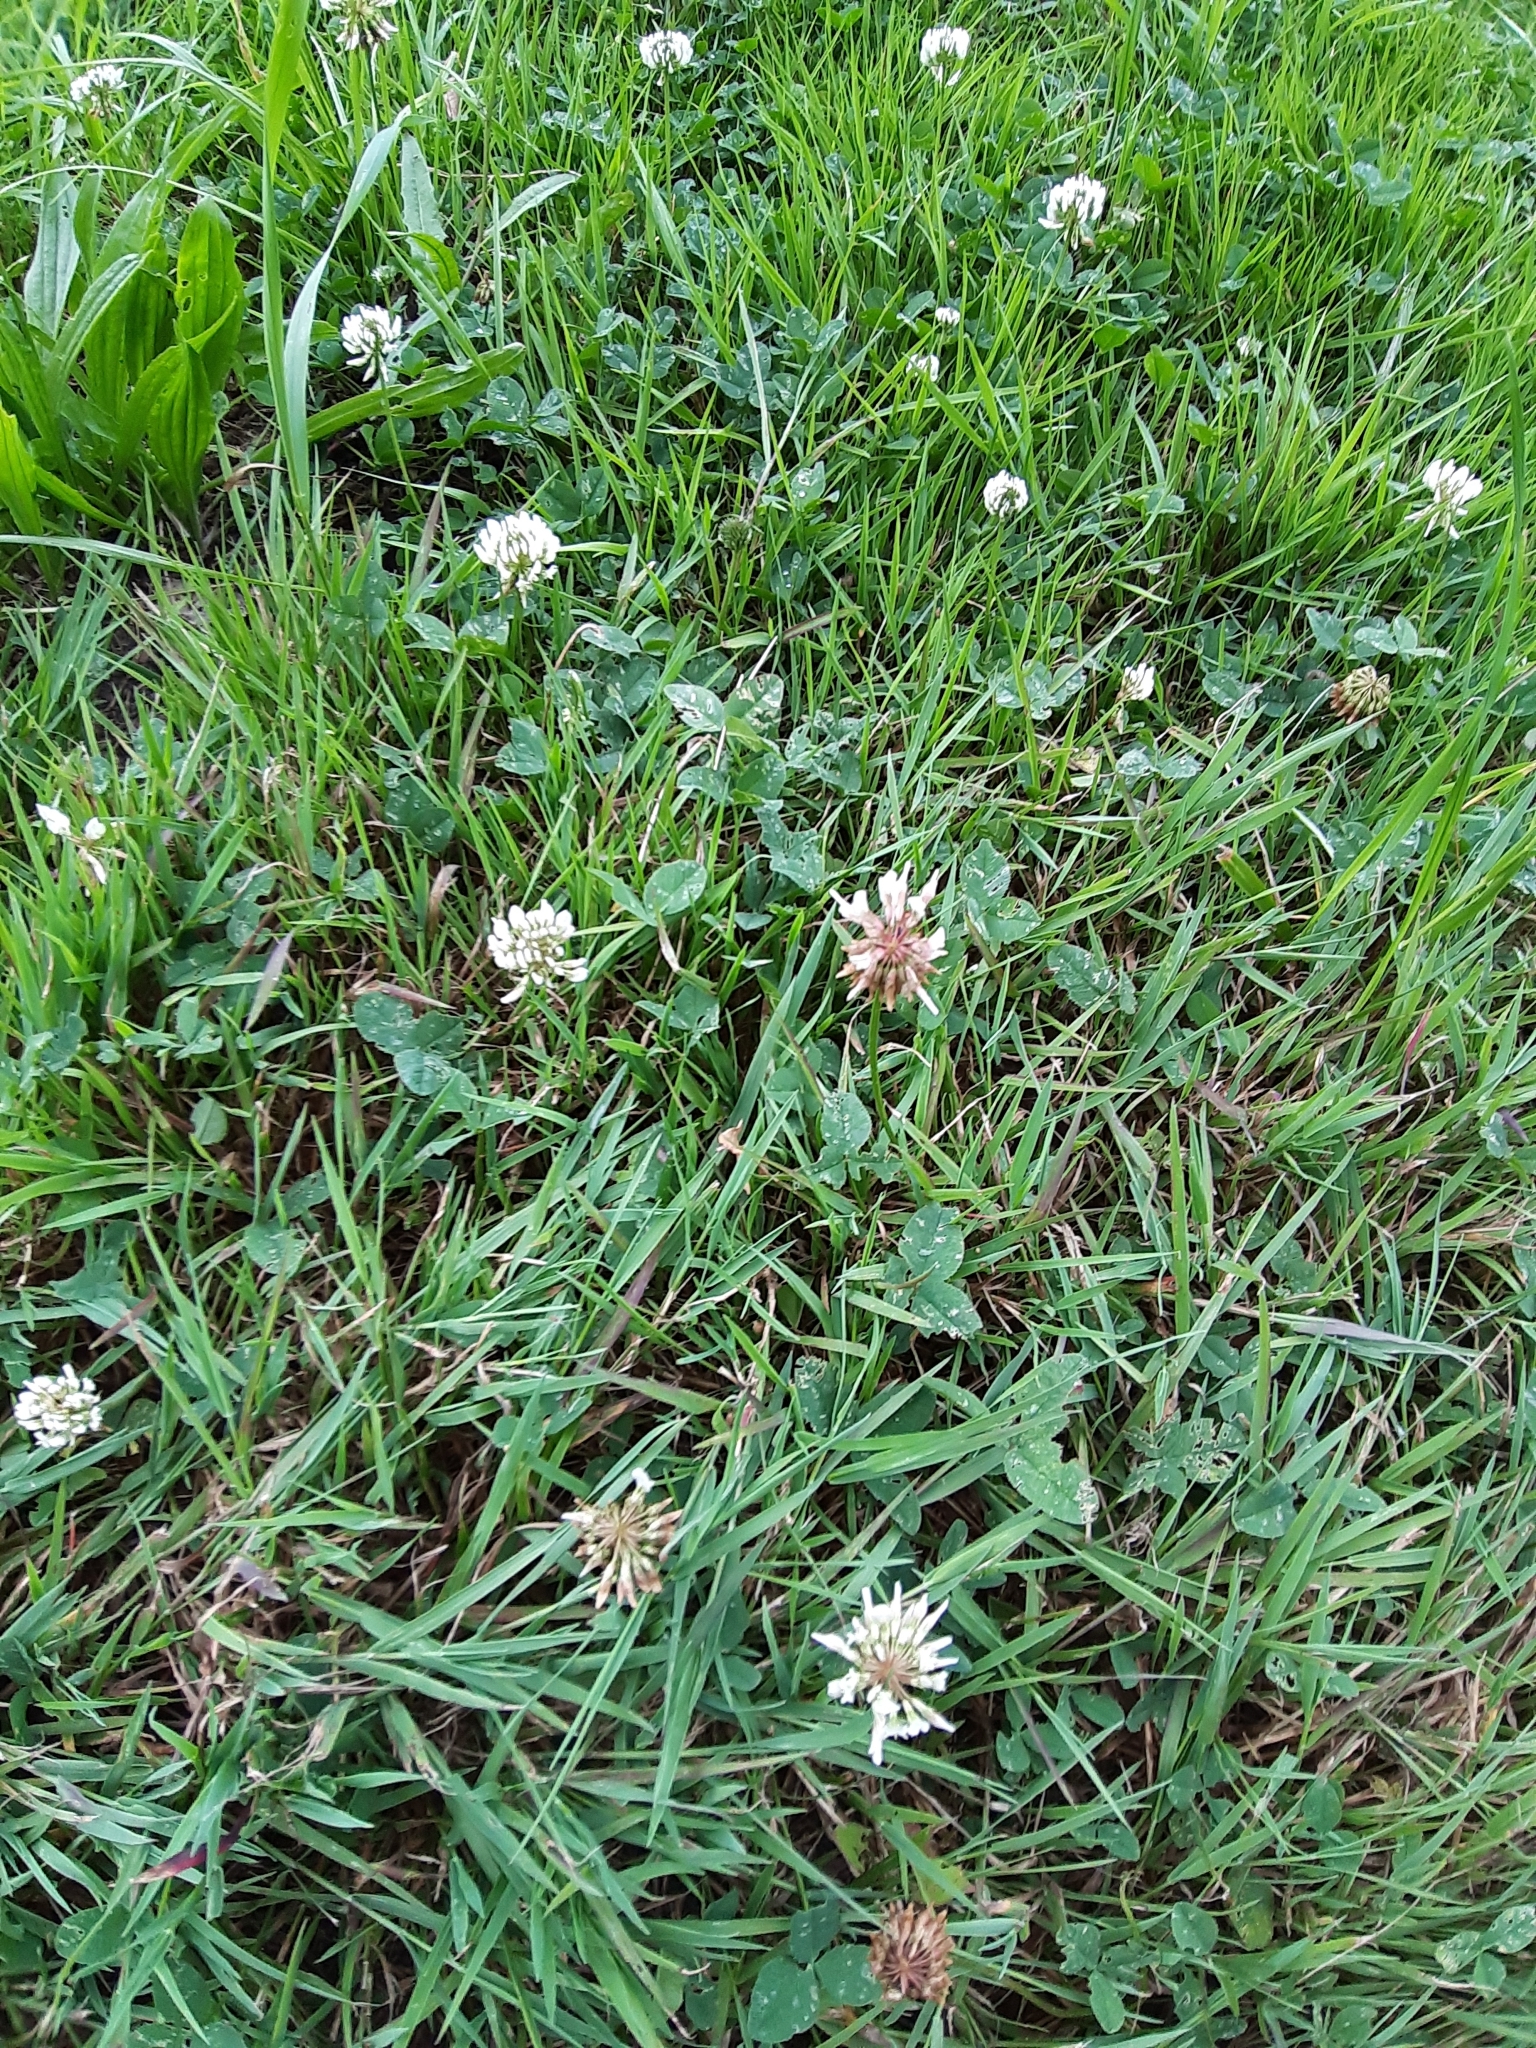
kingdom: Plantae
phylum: Tracheophyta
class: Magnoliopsida
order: Fabales
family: Fabaceae
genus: Trifolium
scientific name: Trifolium repens
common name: White clover
